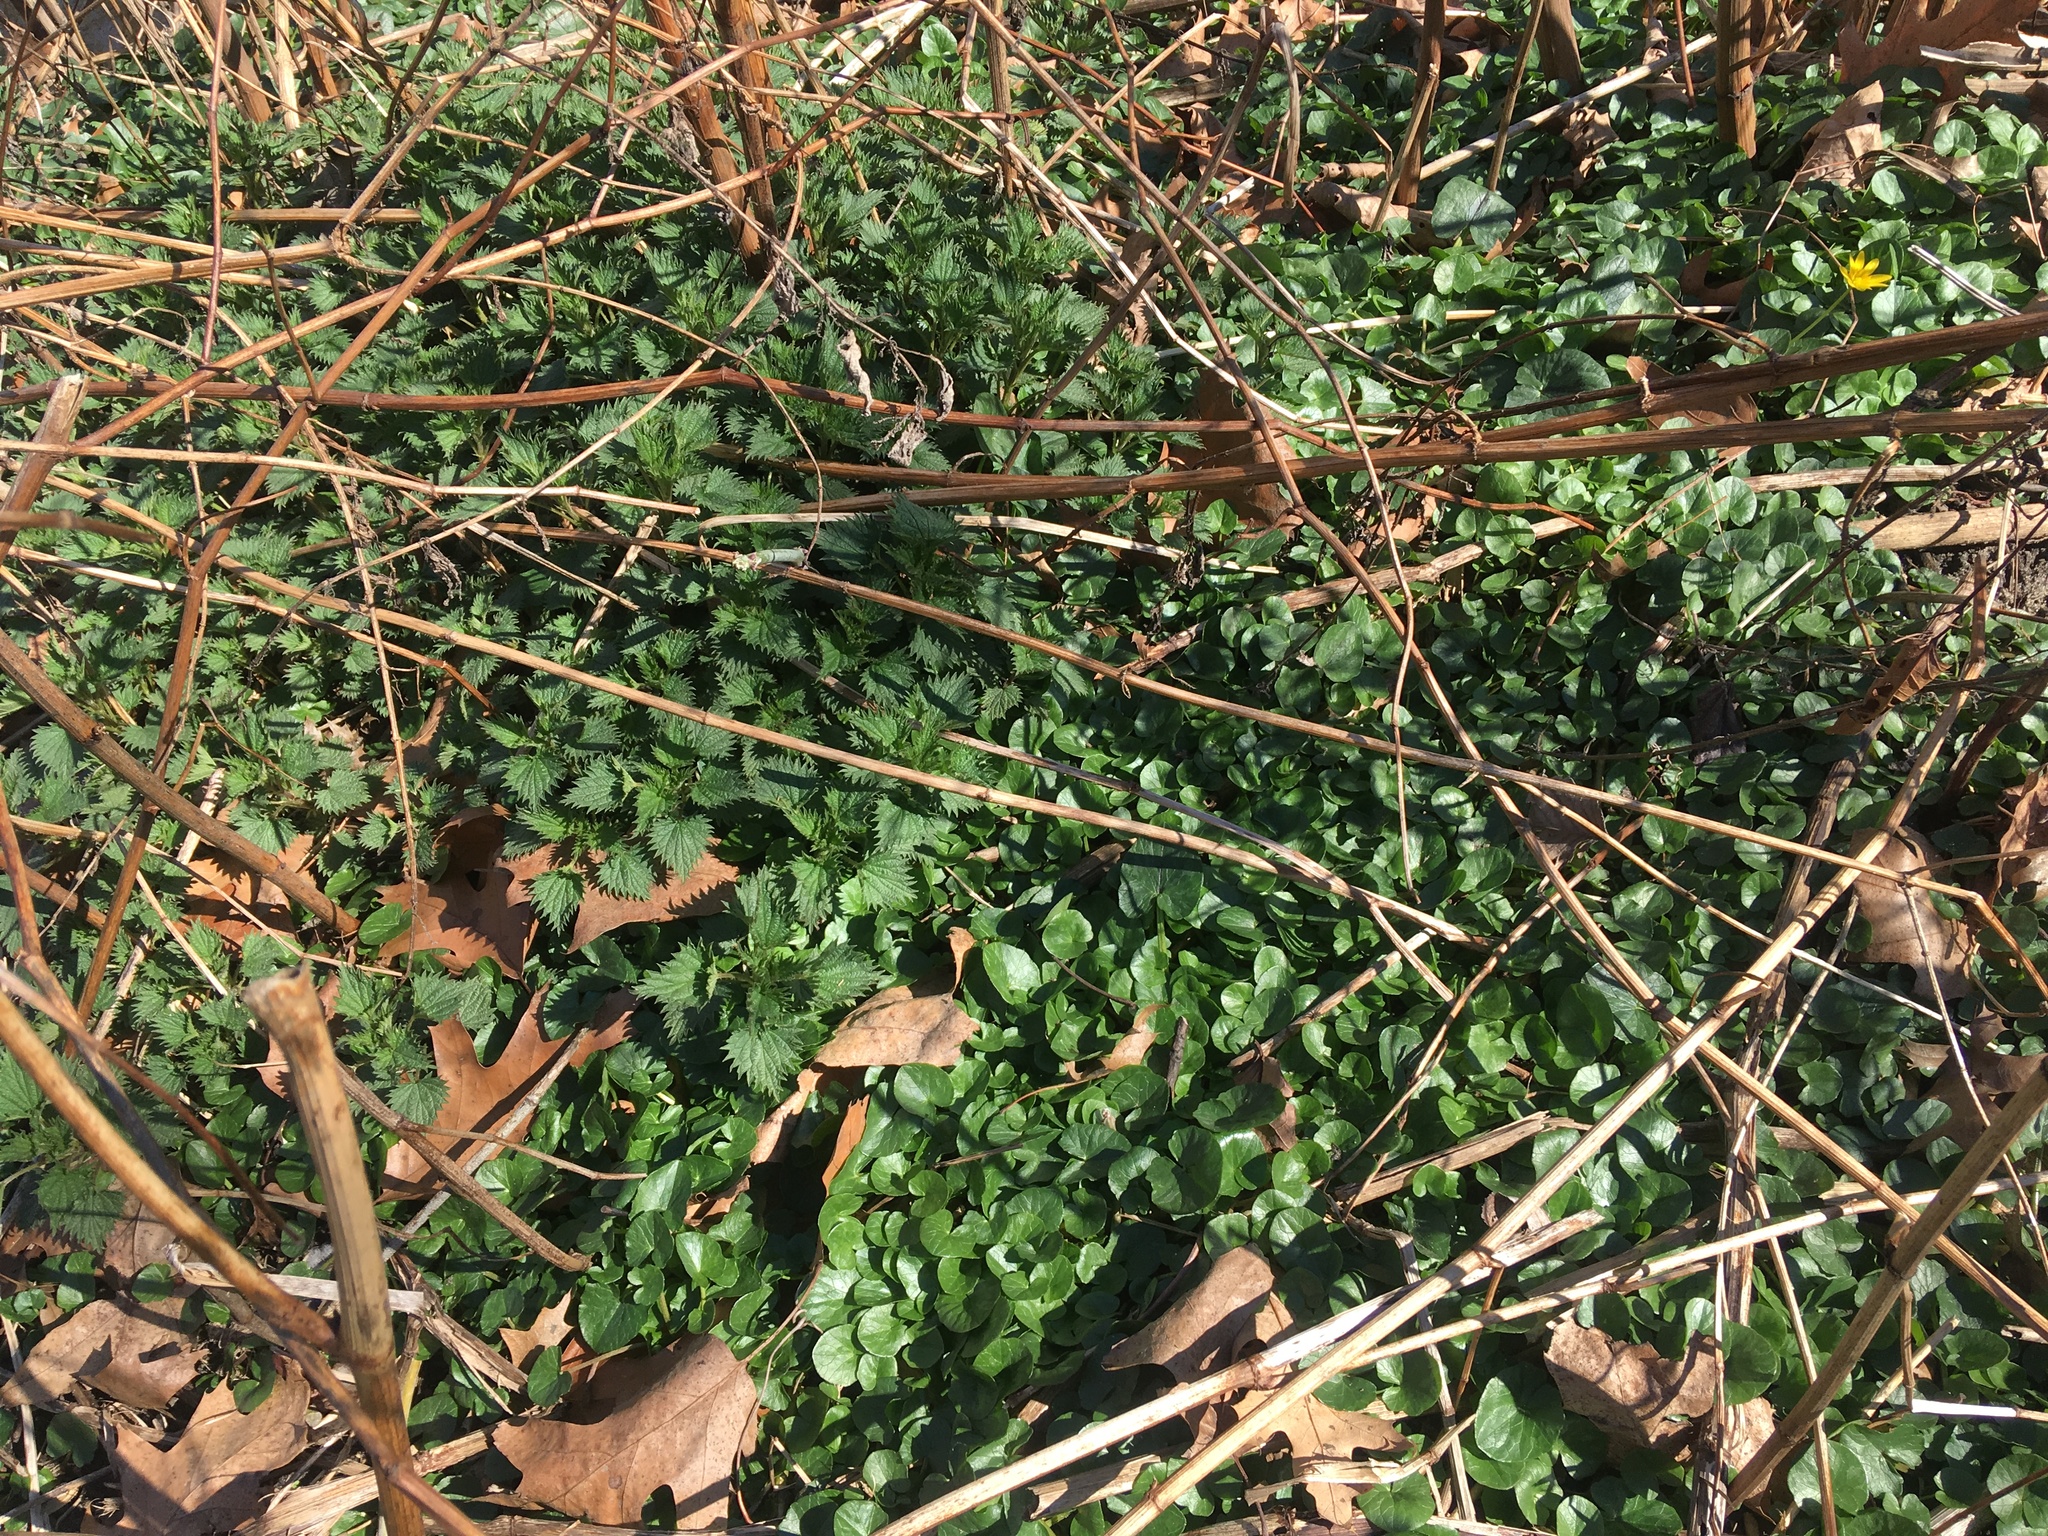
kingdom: Plantae
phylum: Tracheophyta
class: Magnoliopsida
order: Ranunculales
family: Ranunculaceae
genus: Ficaria
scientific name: Ficaria verna
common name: Lesser celandine
